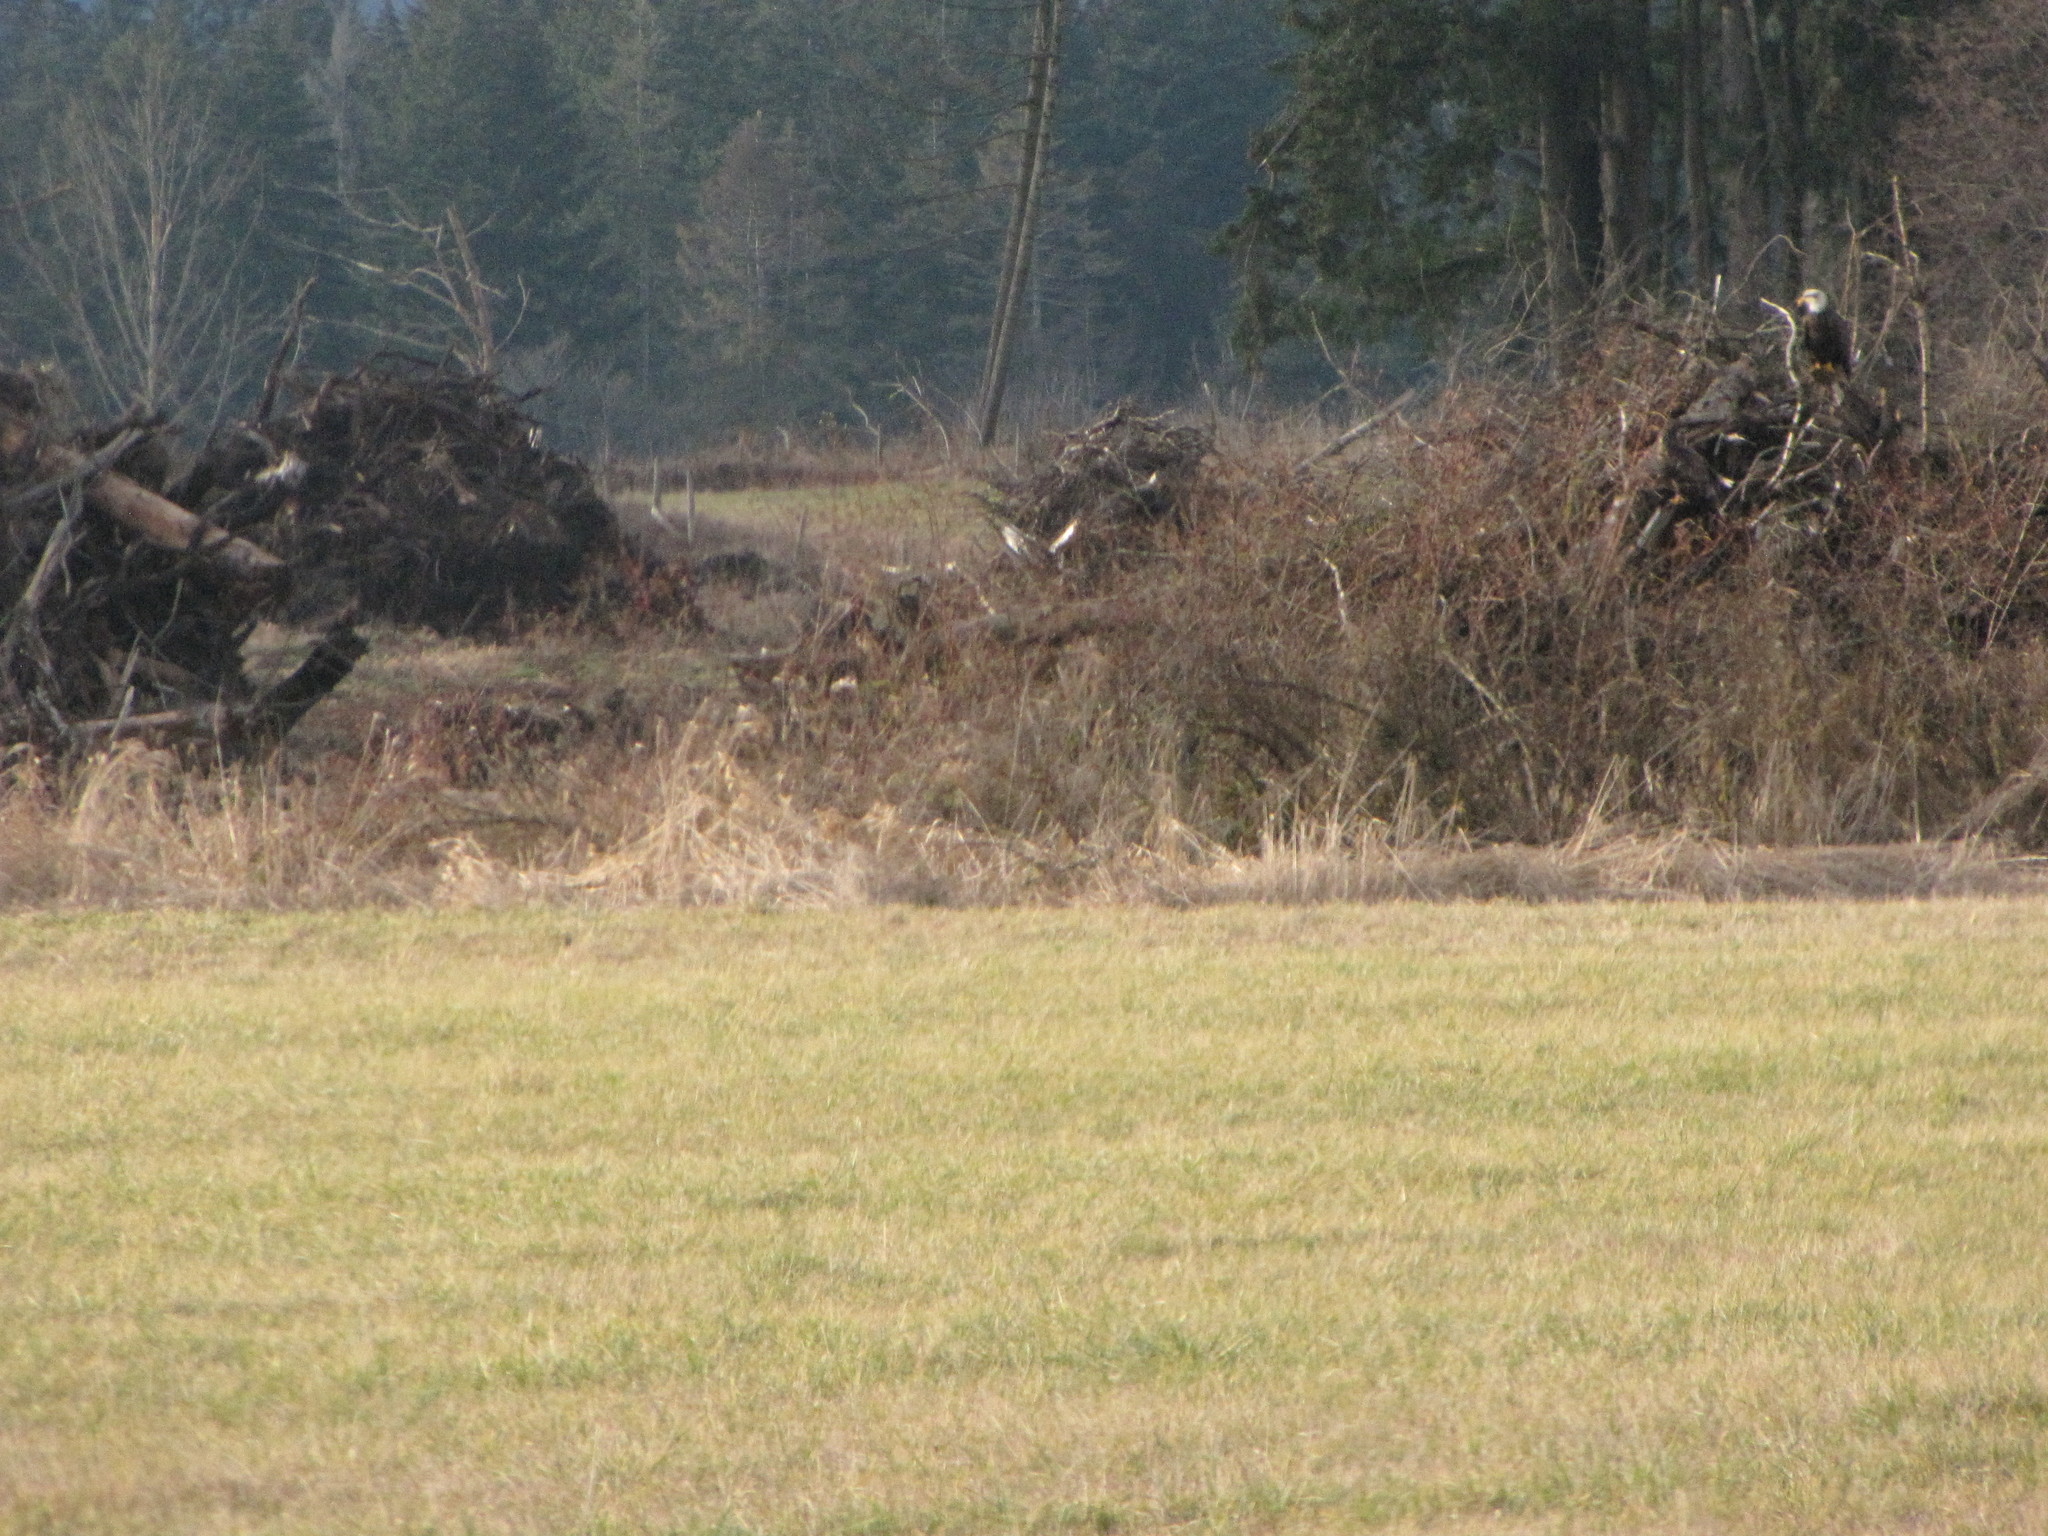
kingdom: Animalia
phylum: Chordata
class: Aves
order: Accipitriformes
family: Accipitridae
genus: Haliaeetus
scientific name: Haliaeetus leucocephalus
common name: Bald eagle
